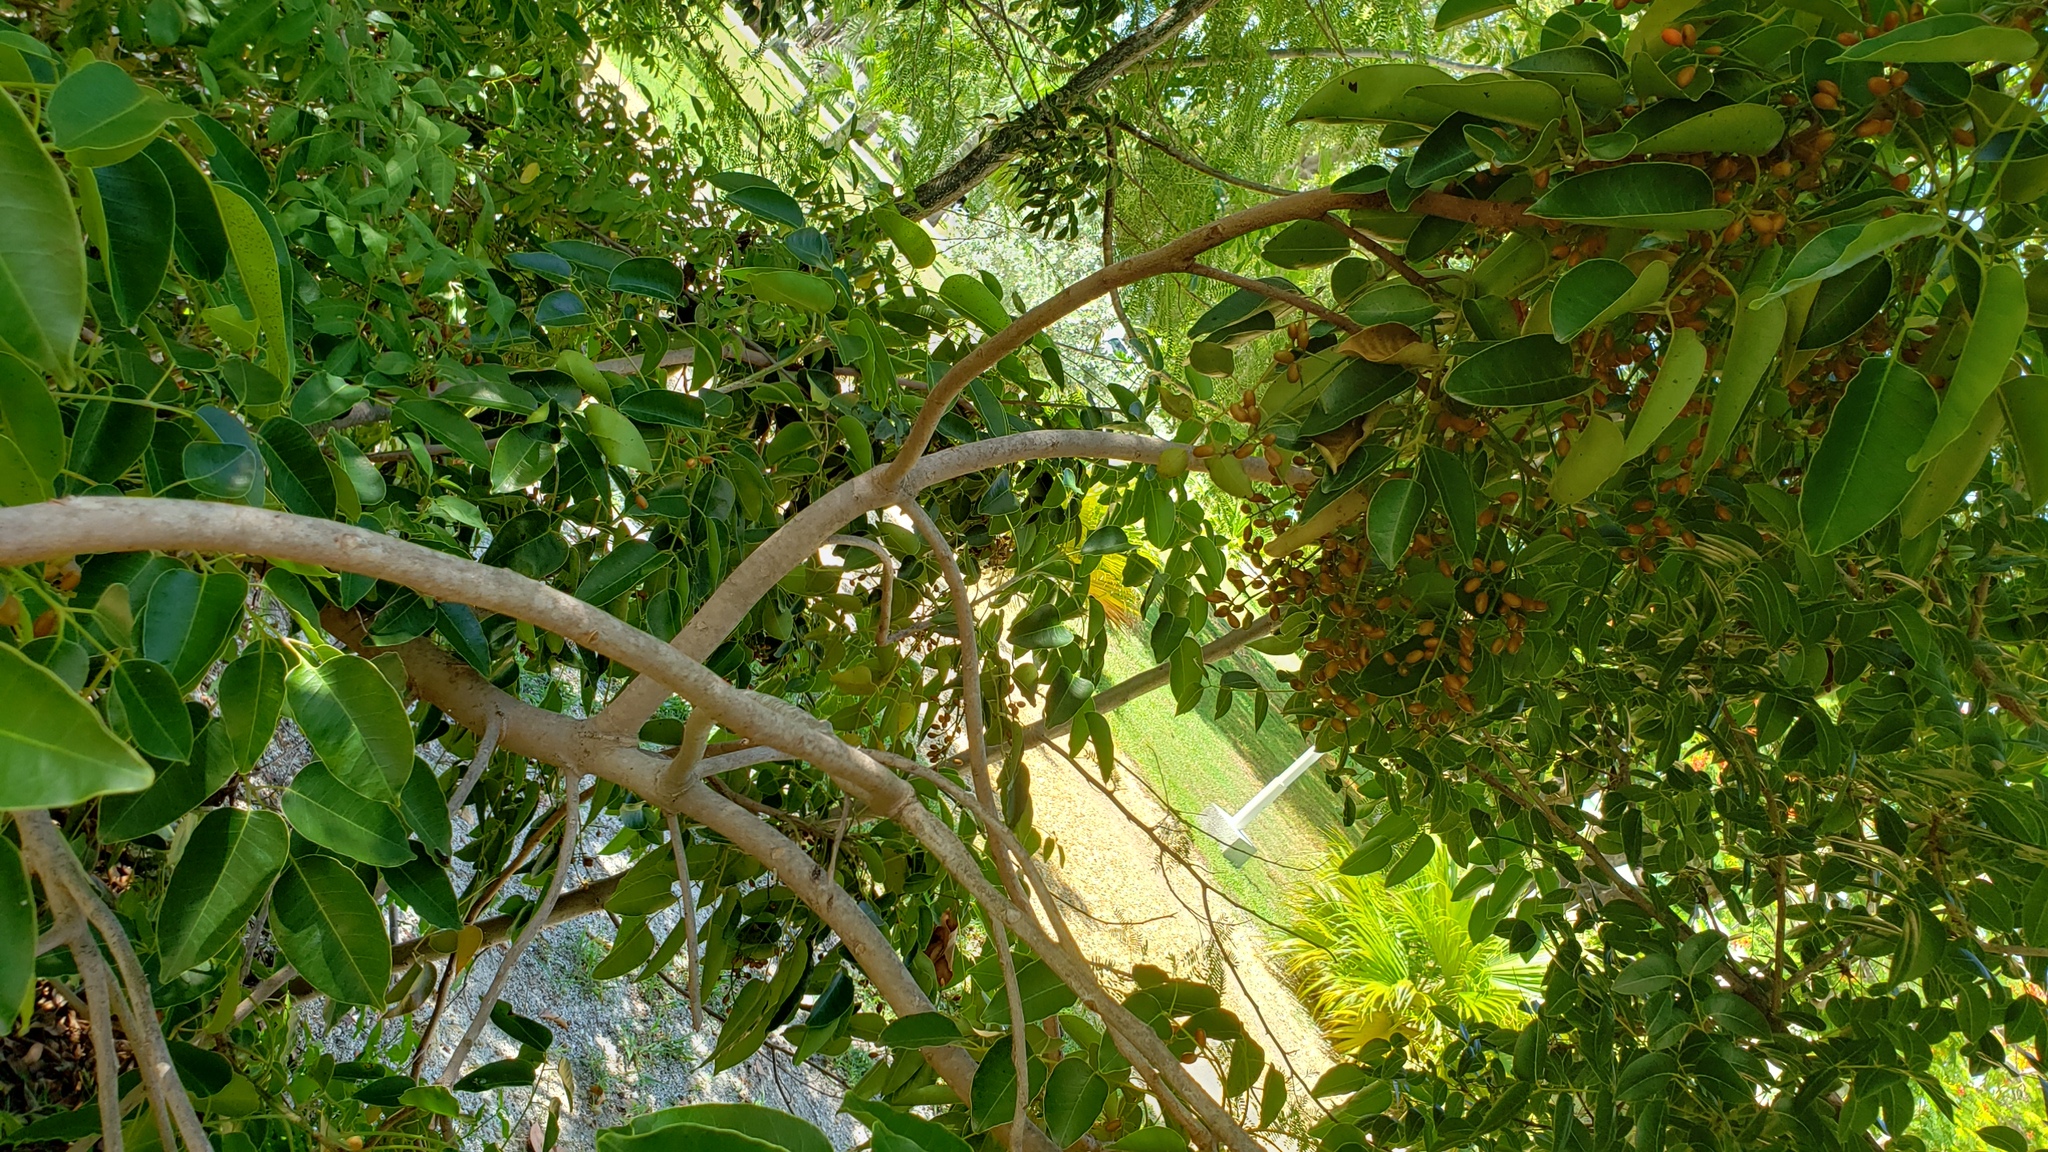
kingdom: Plantae
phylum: Tracheophyta
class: Magnoliopsida
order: Sapindales
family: Anacardiaceae
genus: Metopium
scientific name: Metopium toxiferum
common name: Florida poisontree
